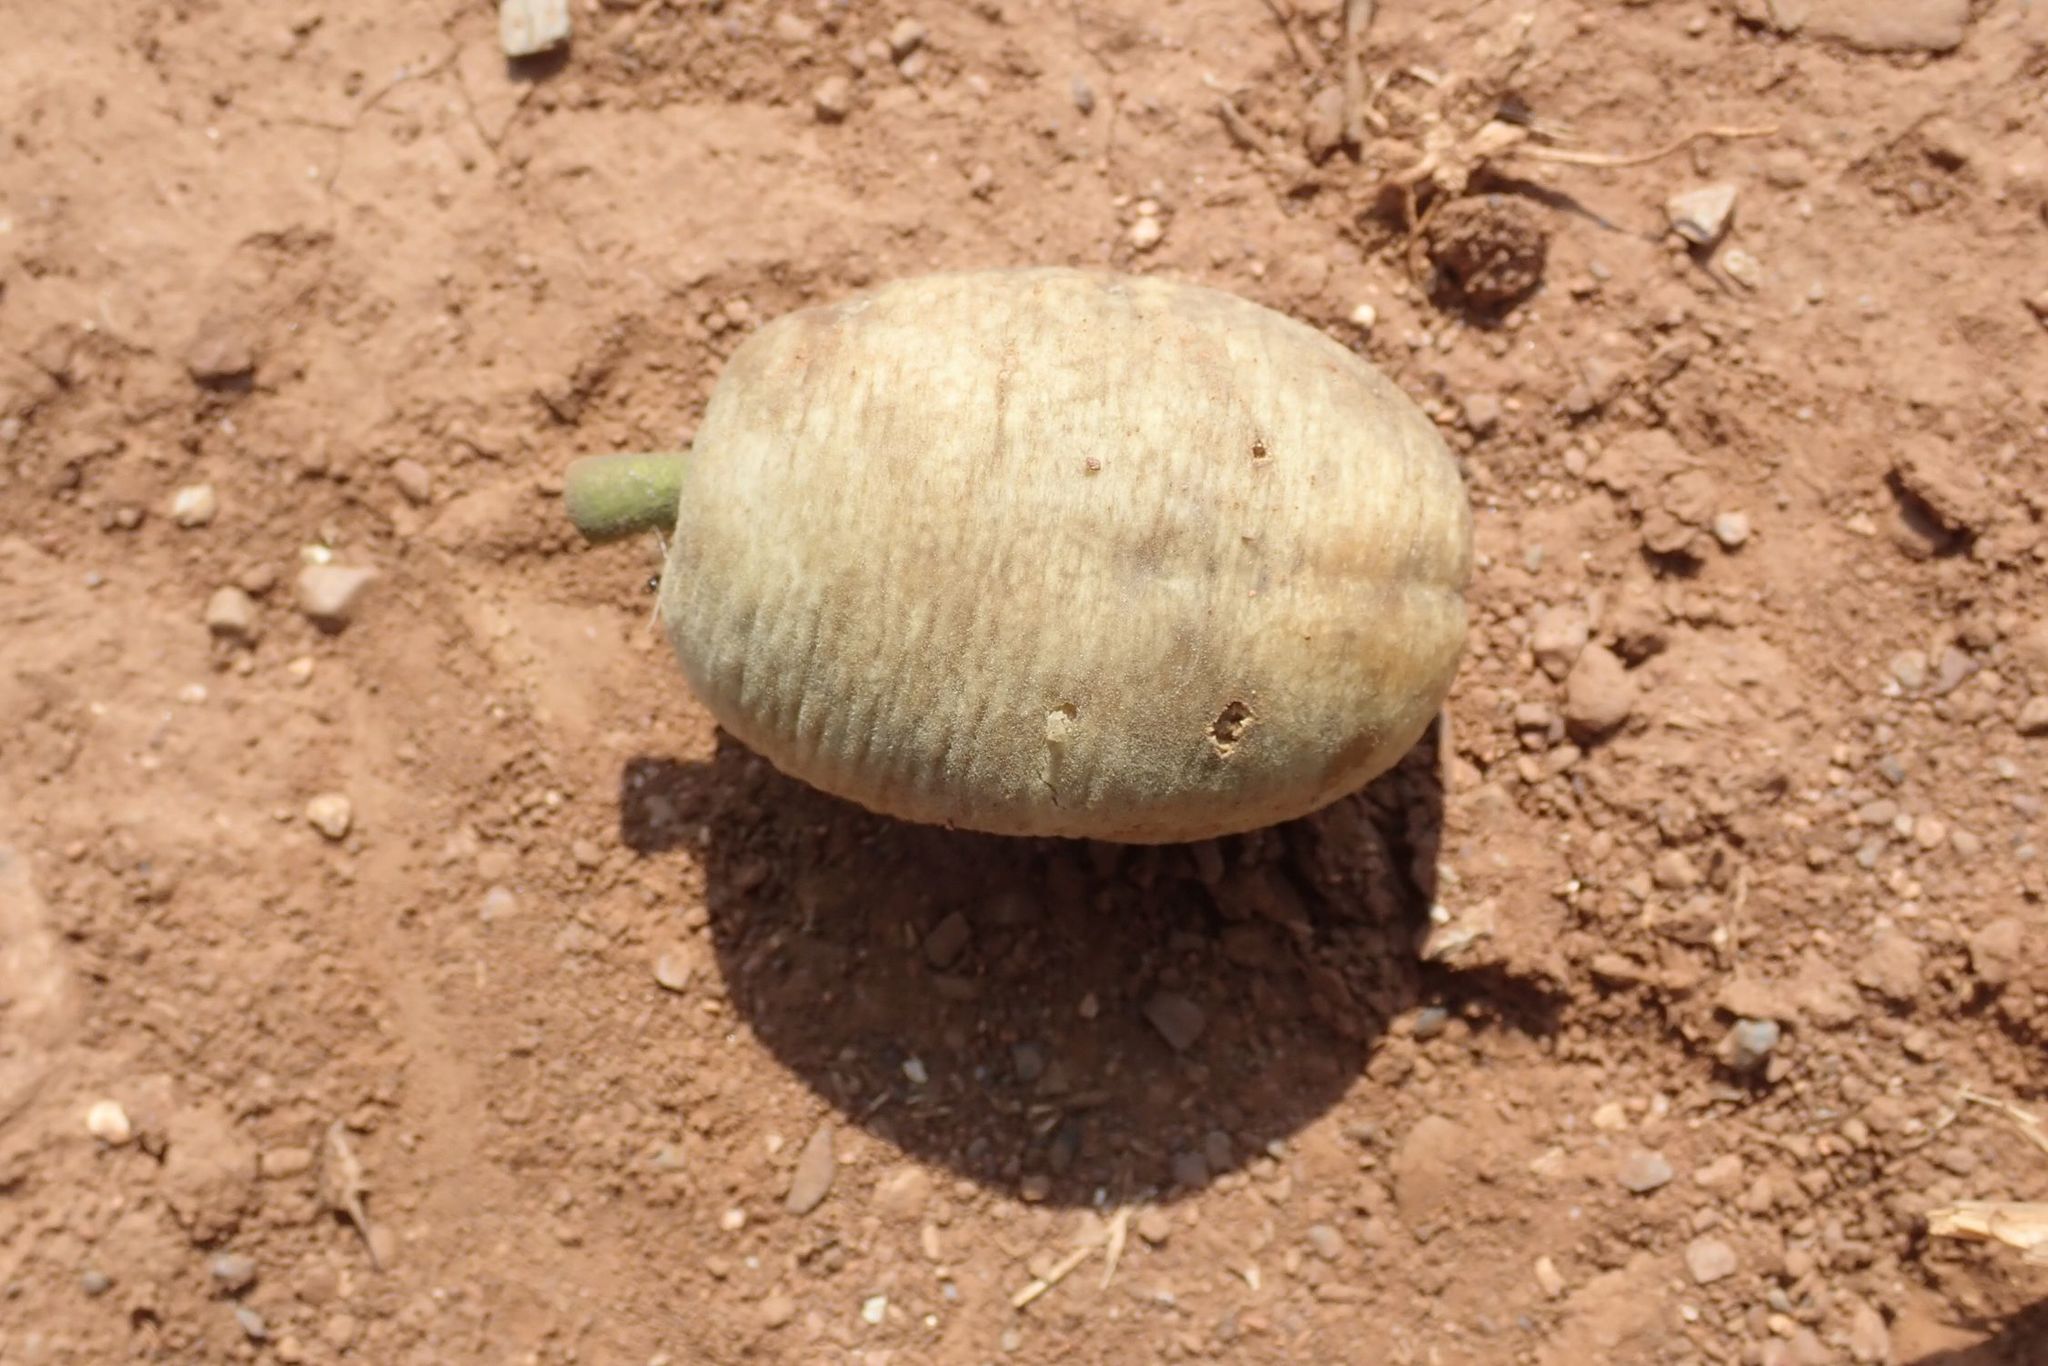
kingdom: Plantae
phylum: Tracheophyta
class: Magnoliopsida
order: Zygophyllales
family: Zygophyllaceae
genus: Balanites
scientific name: Balanites maughamii
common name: Torchwood
